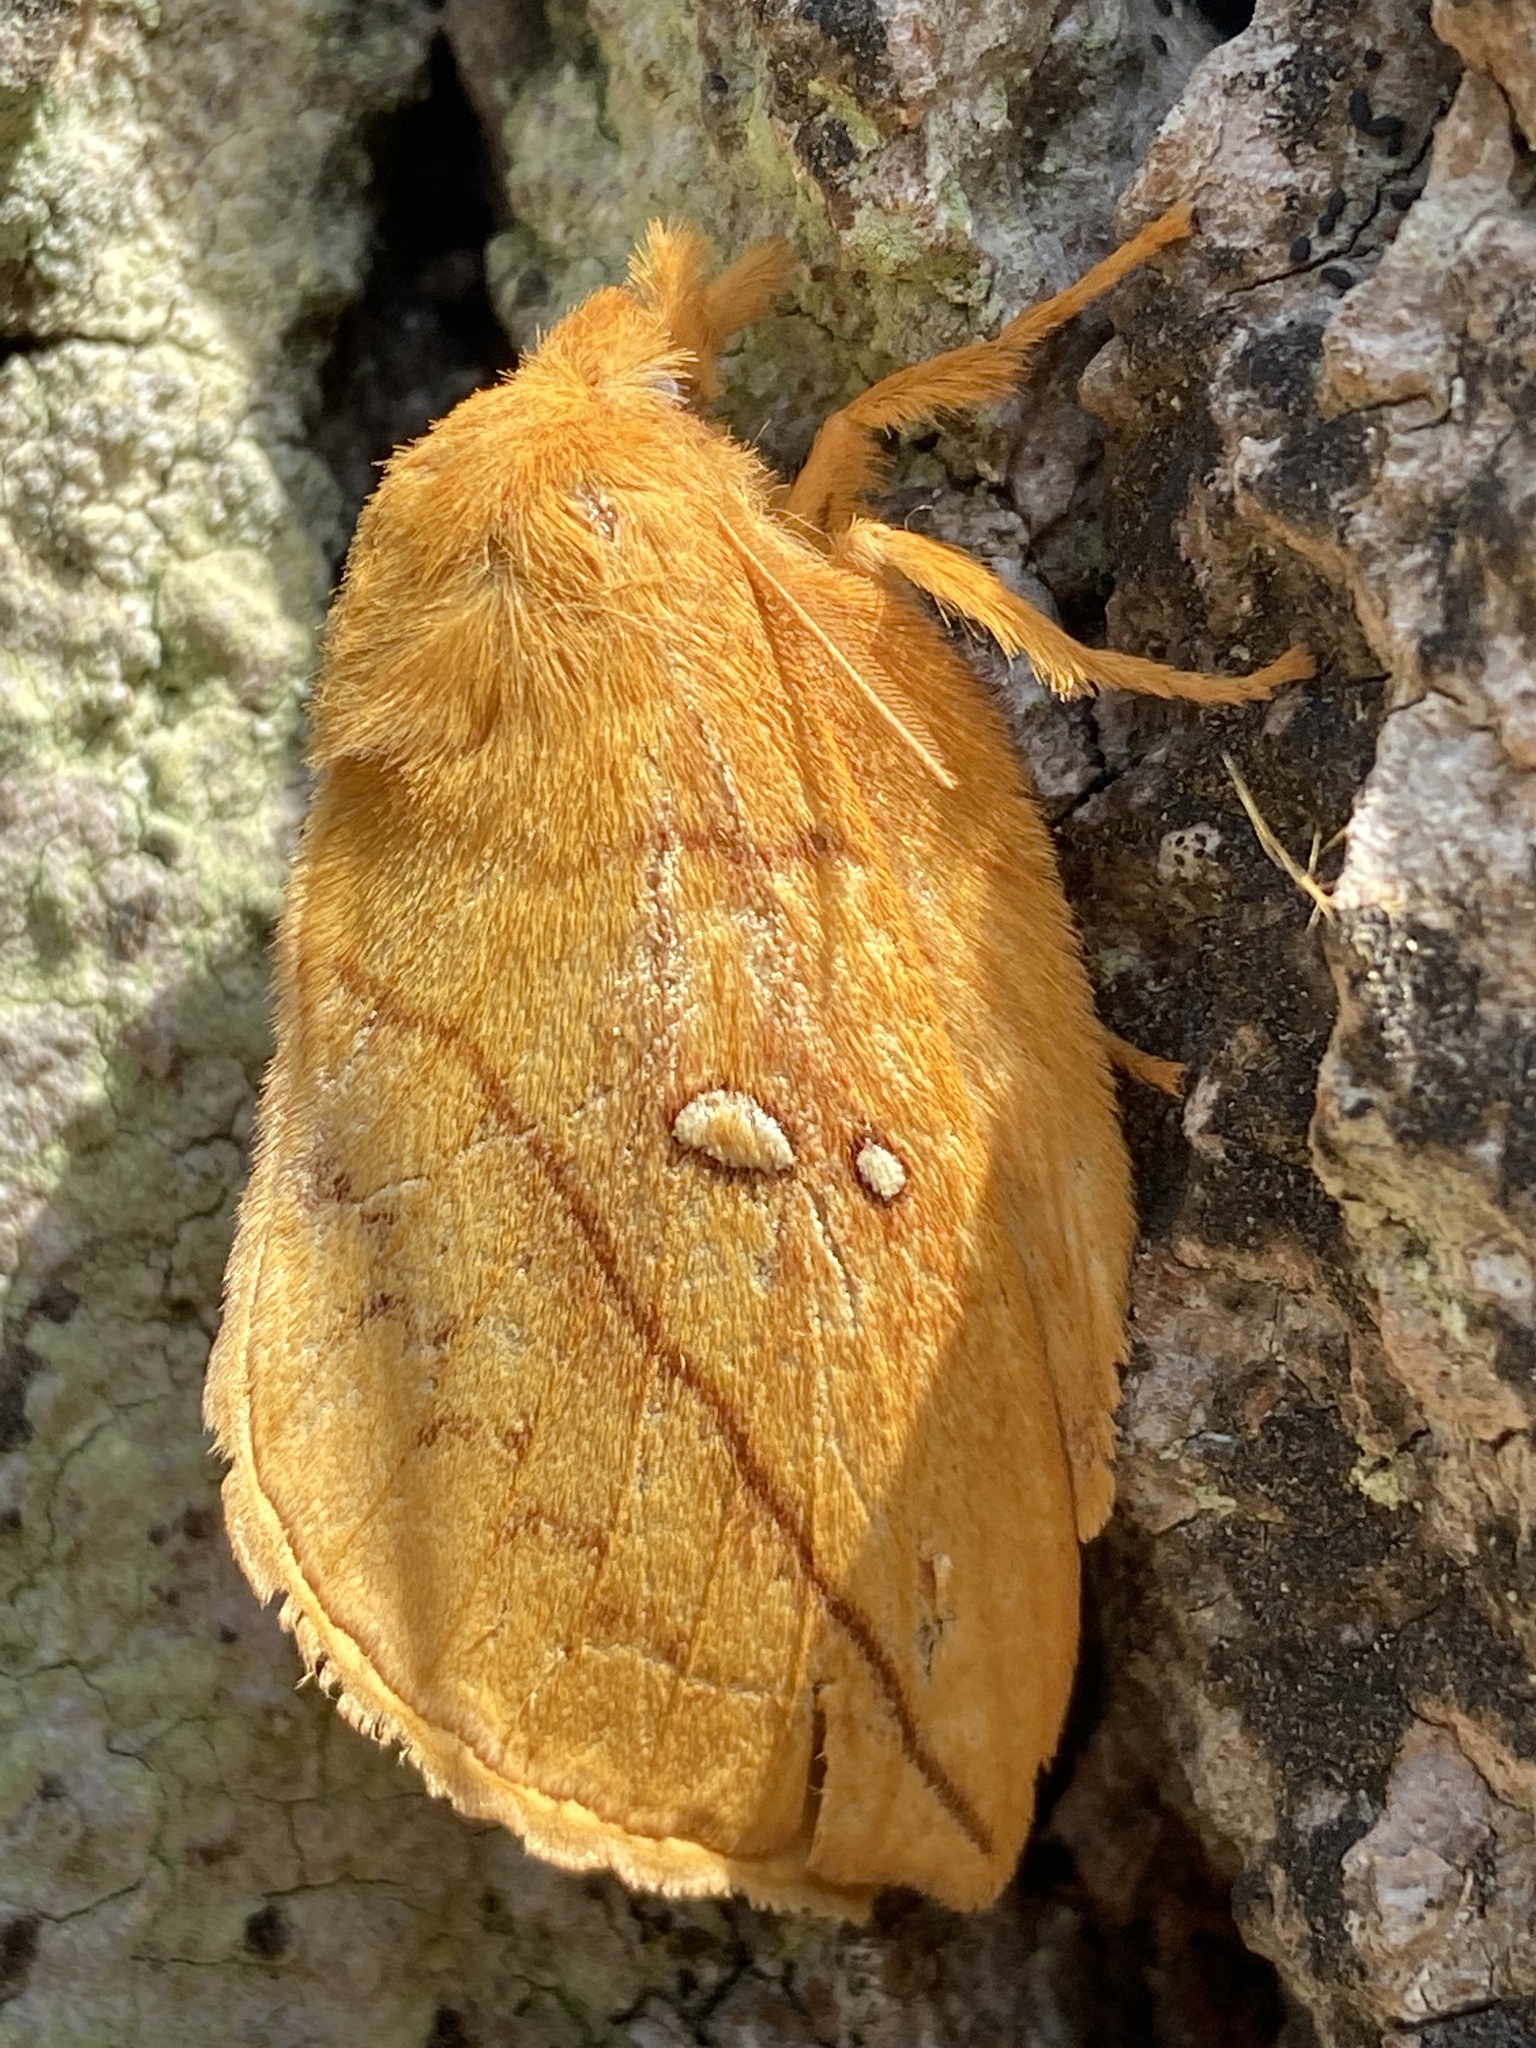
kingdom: Animalia
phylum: Arthropoda
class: Insecta
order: Lepidoptera
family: Lasiocampidae
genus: Euthrix
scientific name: Euthrix potatoria
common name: Drinker
